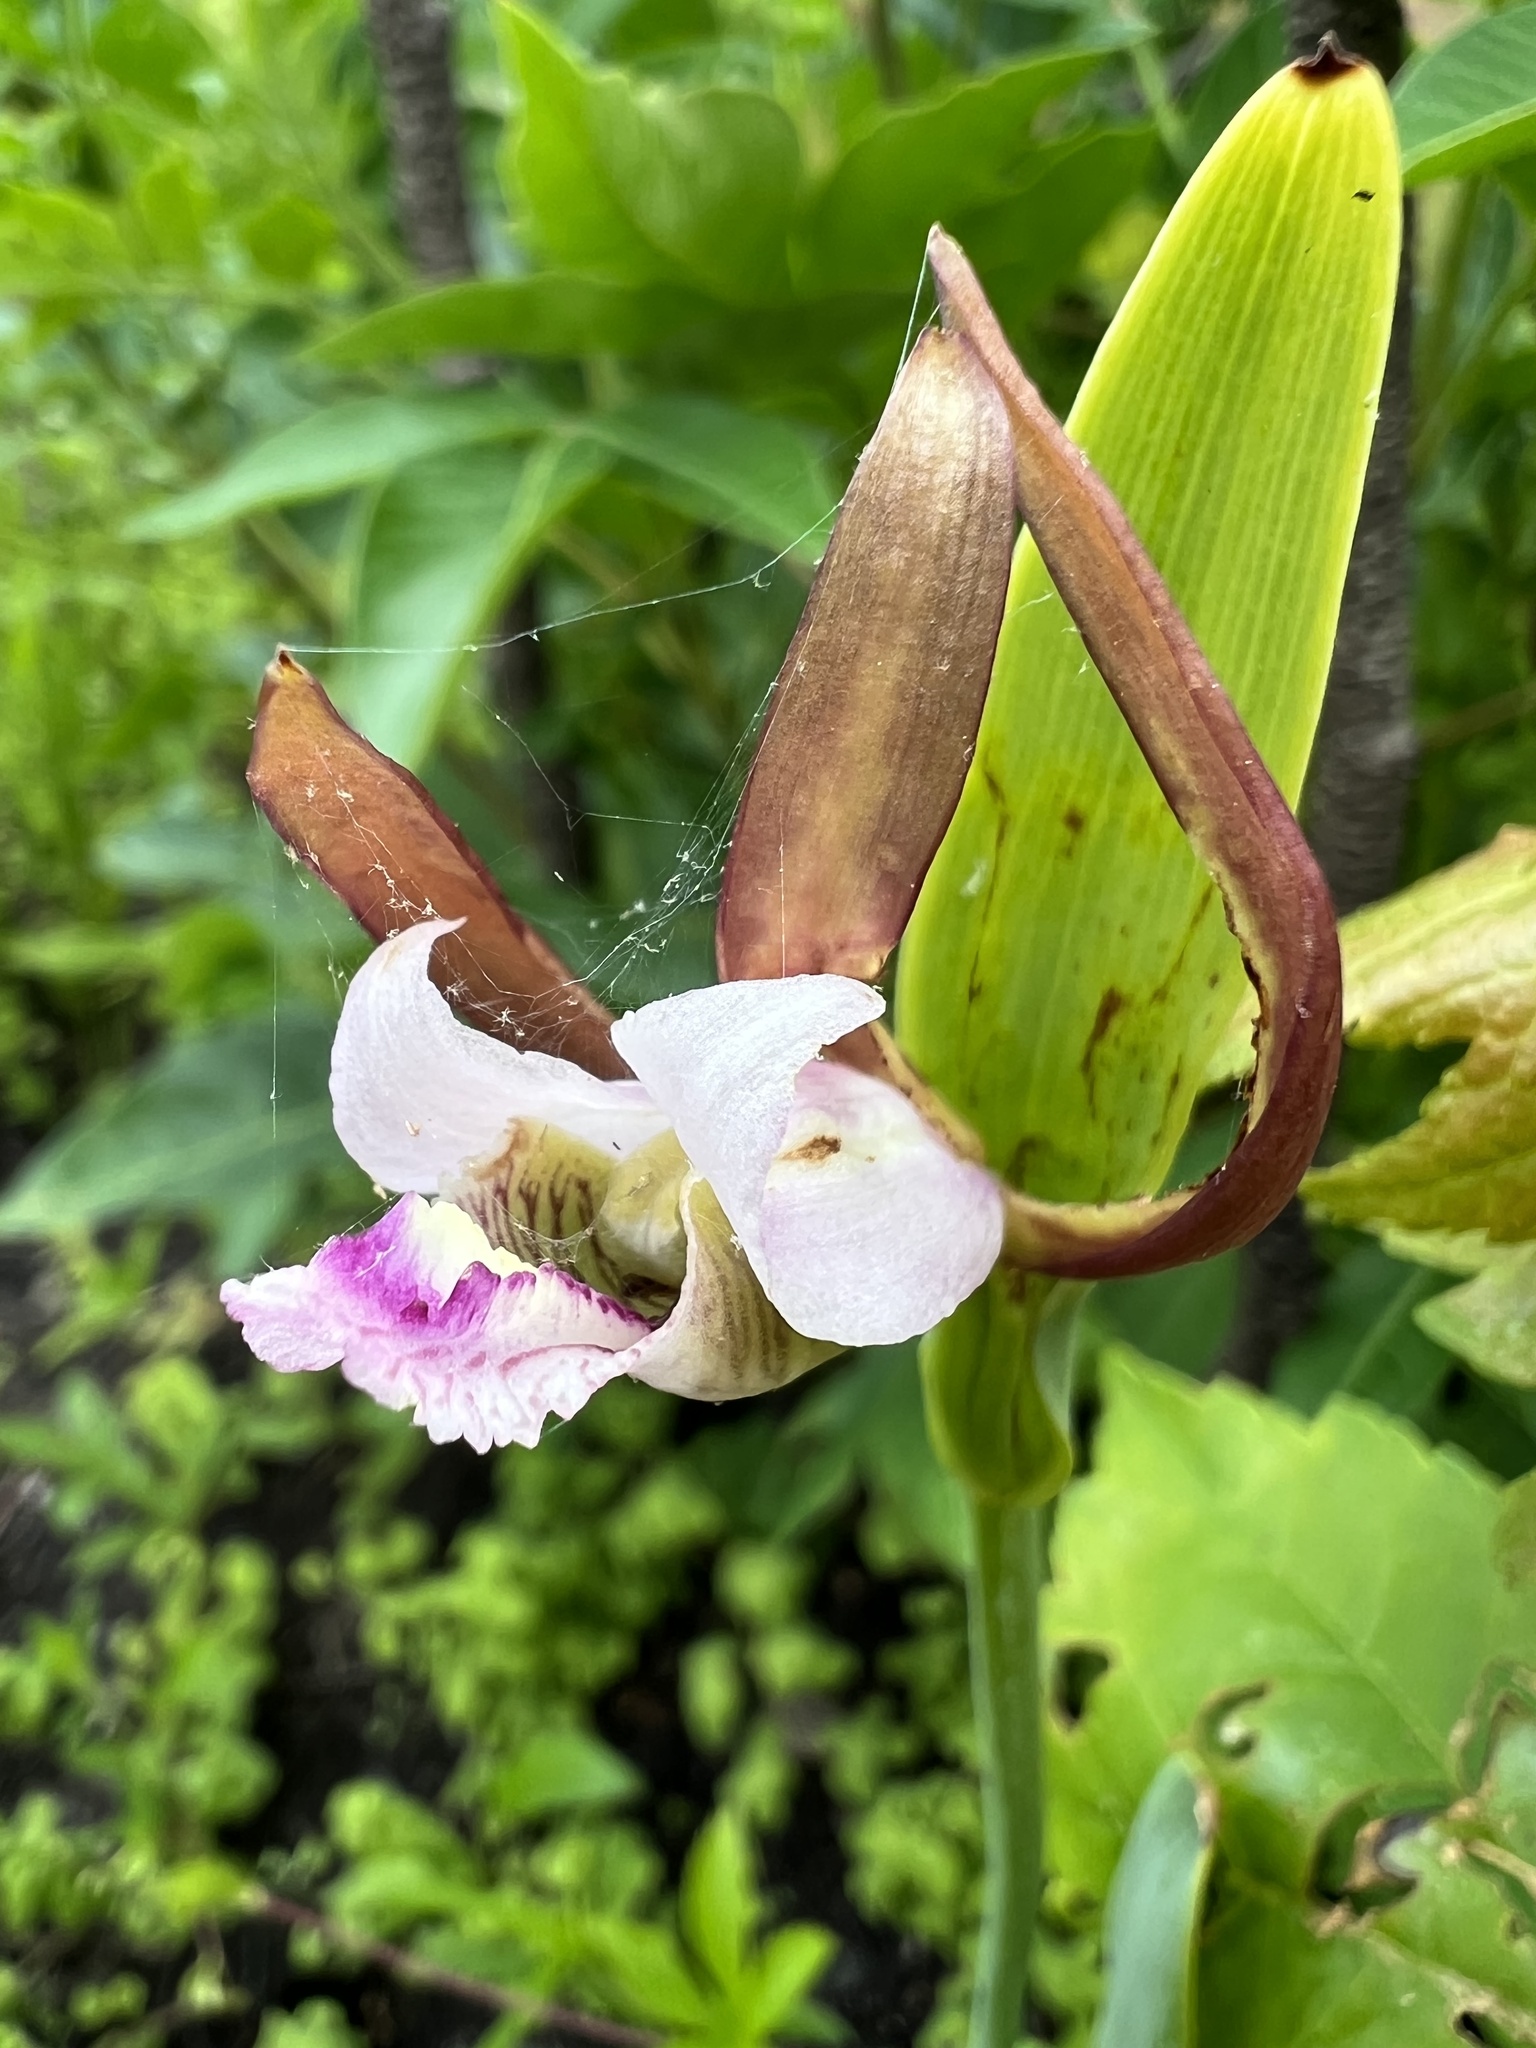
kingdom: Plantae
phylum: Tracheophyta
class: Liliopsida
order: Asparagales
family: Orchidaceae
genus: Cleistesiopsis
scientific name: Cleistesiopsis bifaria
